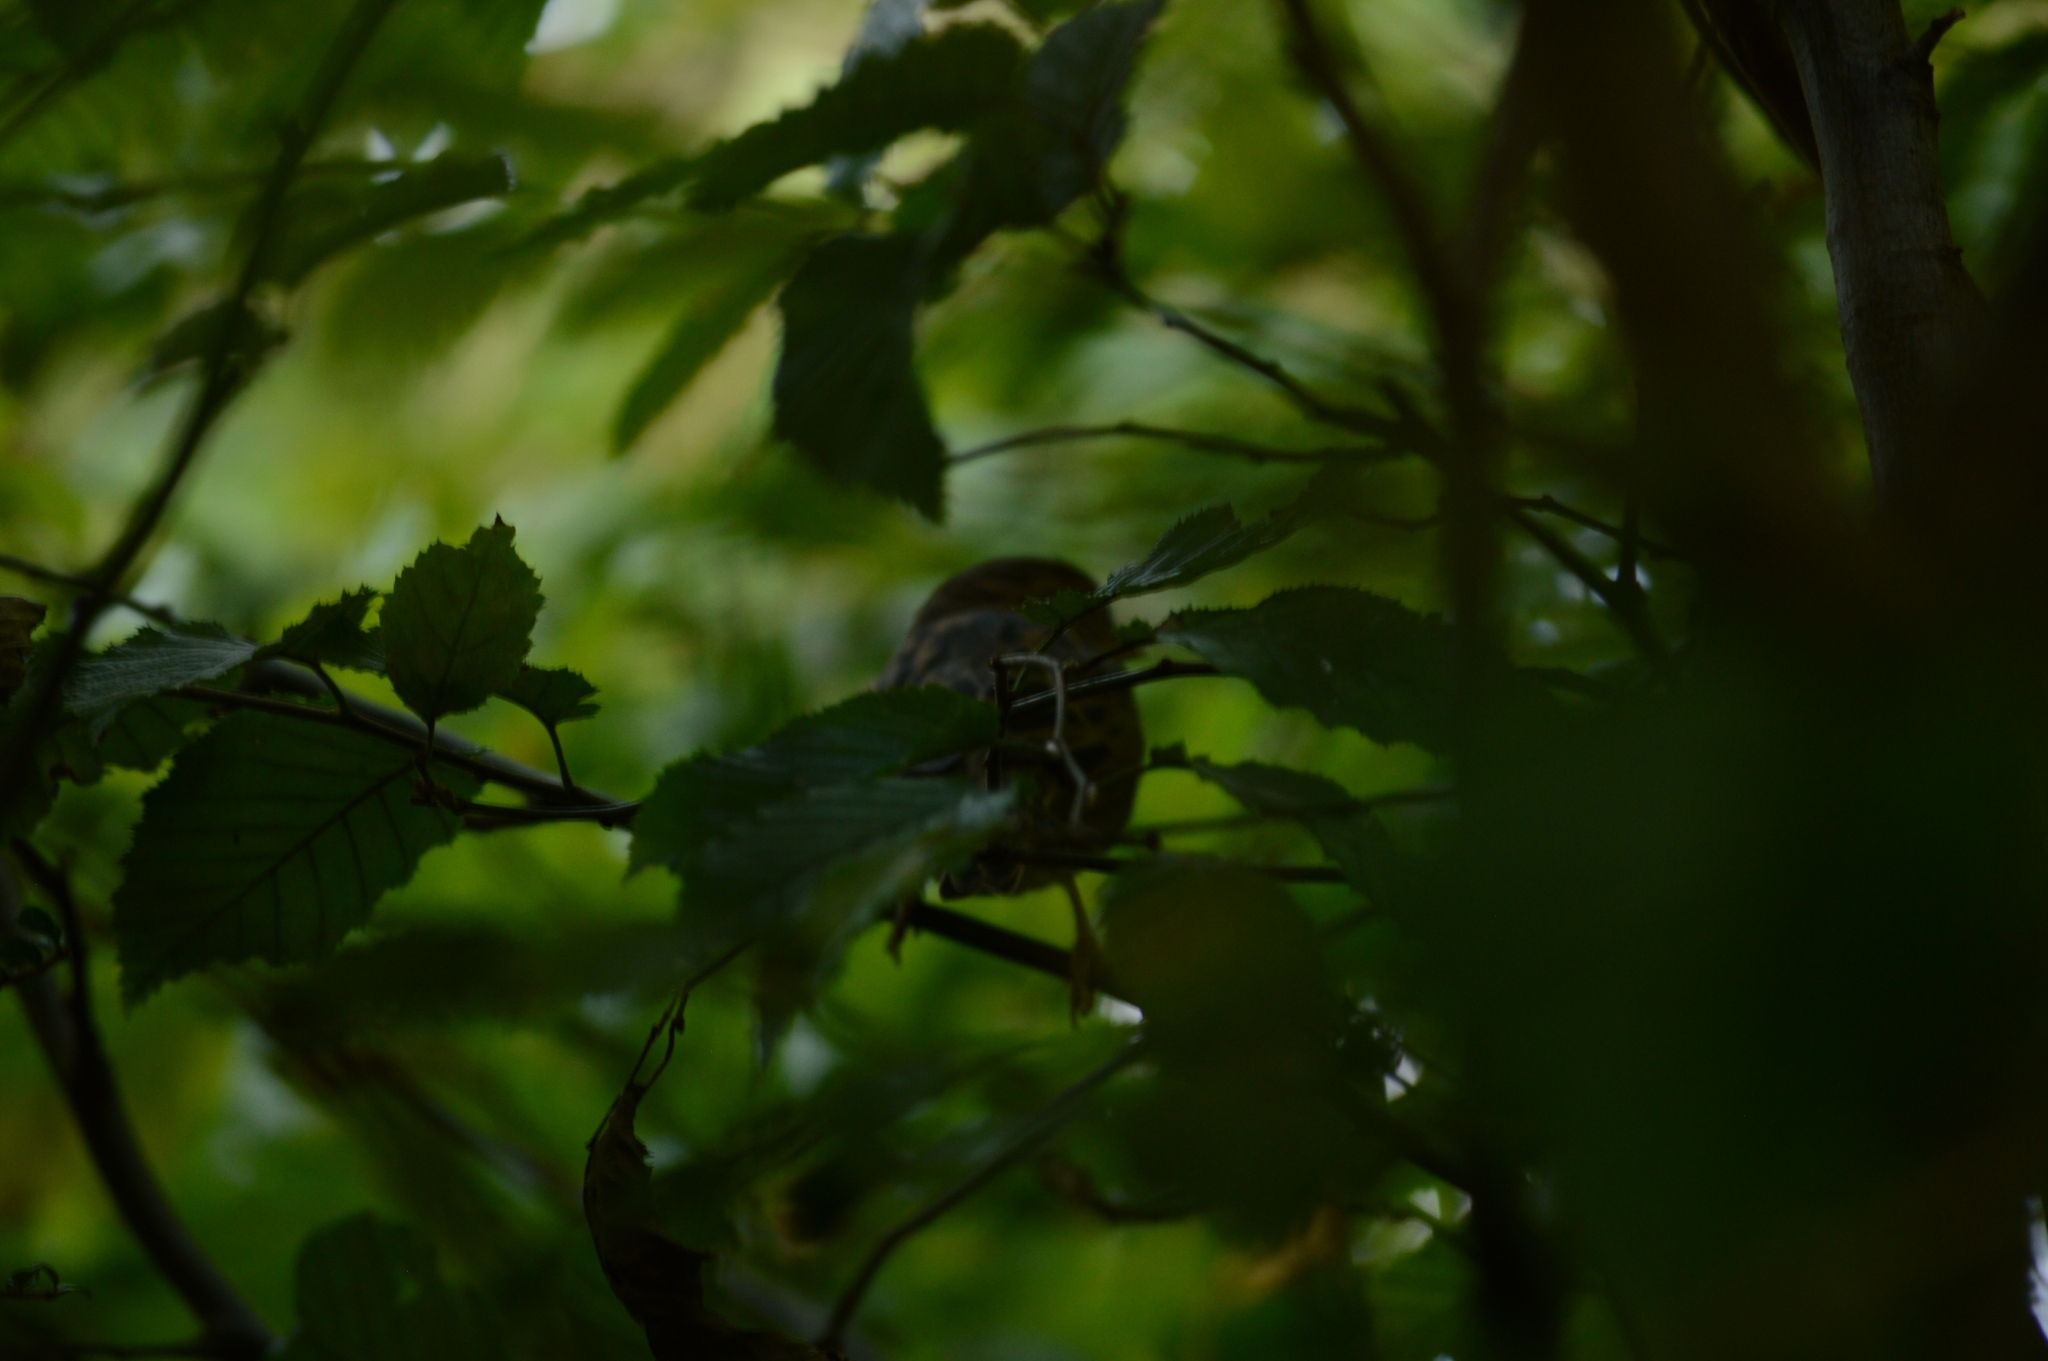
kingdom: Animalia
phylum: Chordata
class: Aves
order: Passeriformes
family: Passeridae
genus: Passer
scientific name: Passer domesticus
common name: House sparrow
